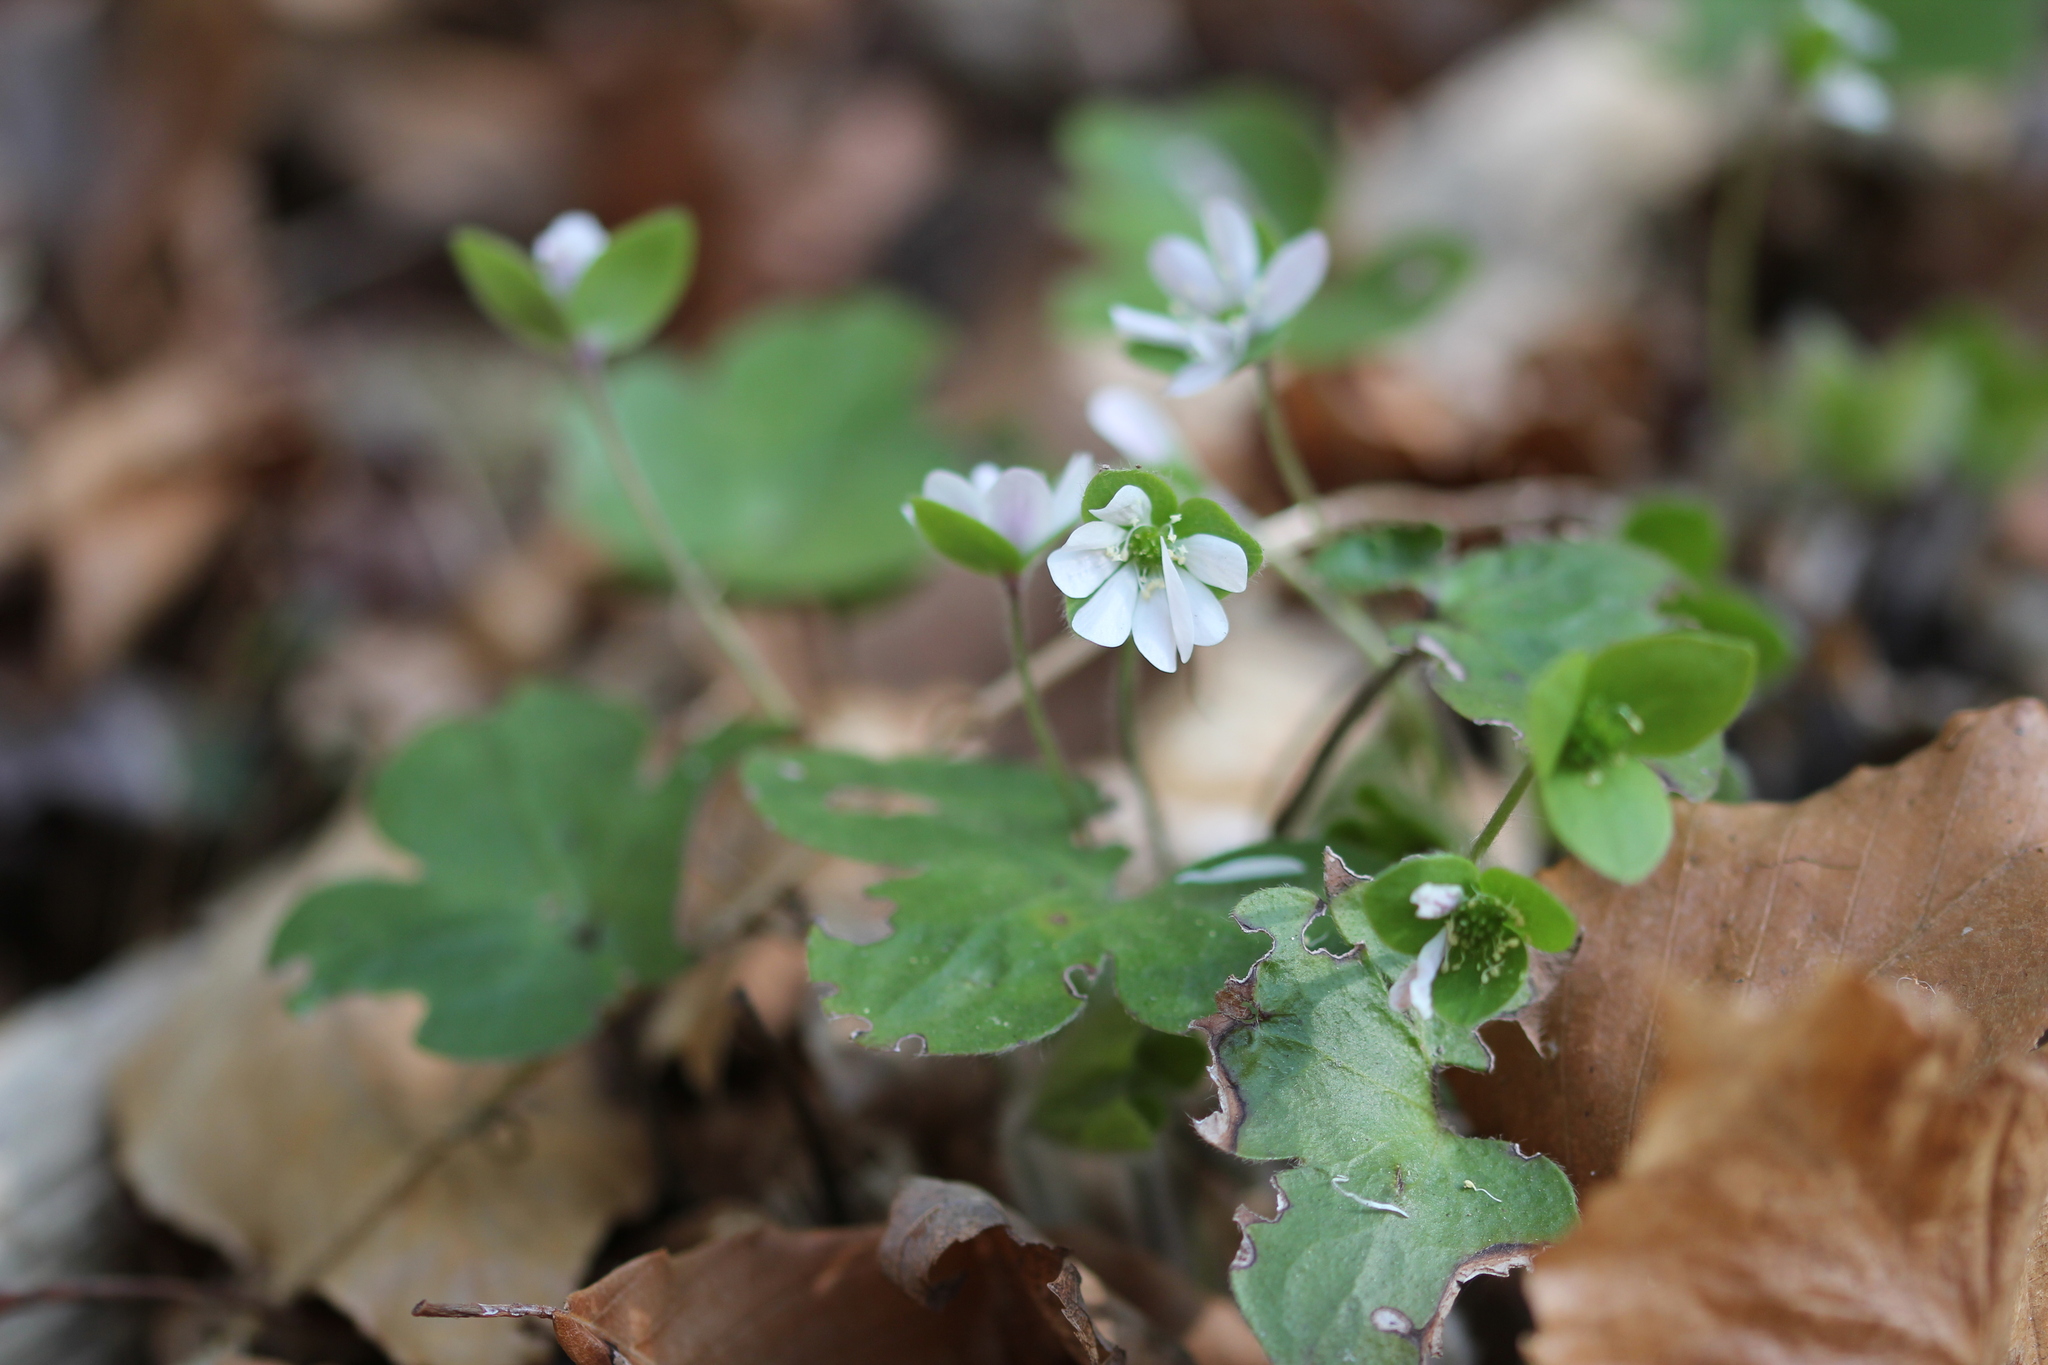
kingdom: Plantae
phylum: Tracheophyta
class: Magnoliopsida
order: Ranunculales
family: Ranunculaceae
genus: Hepatica
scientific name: Hepatica americana
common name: American hepatica
